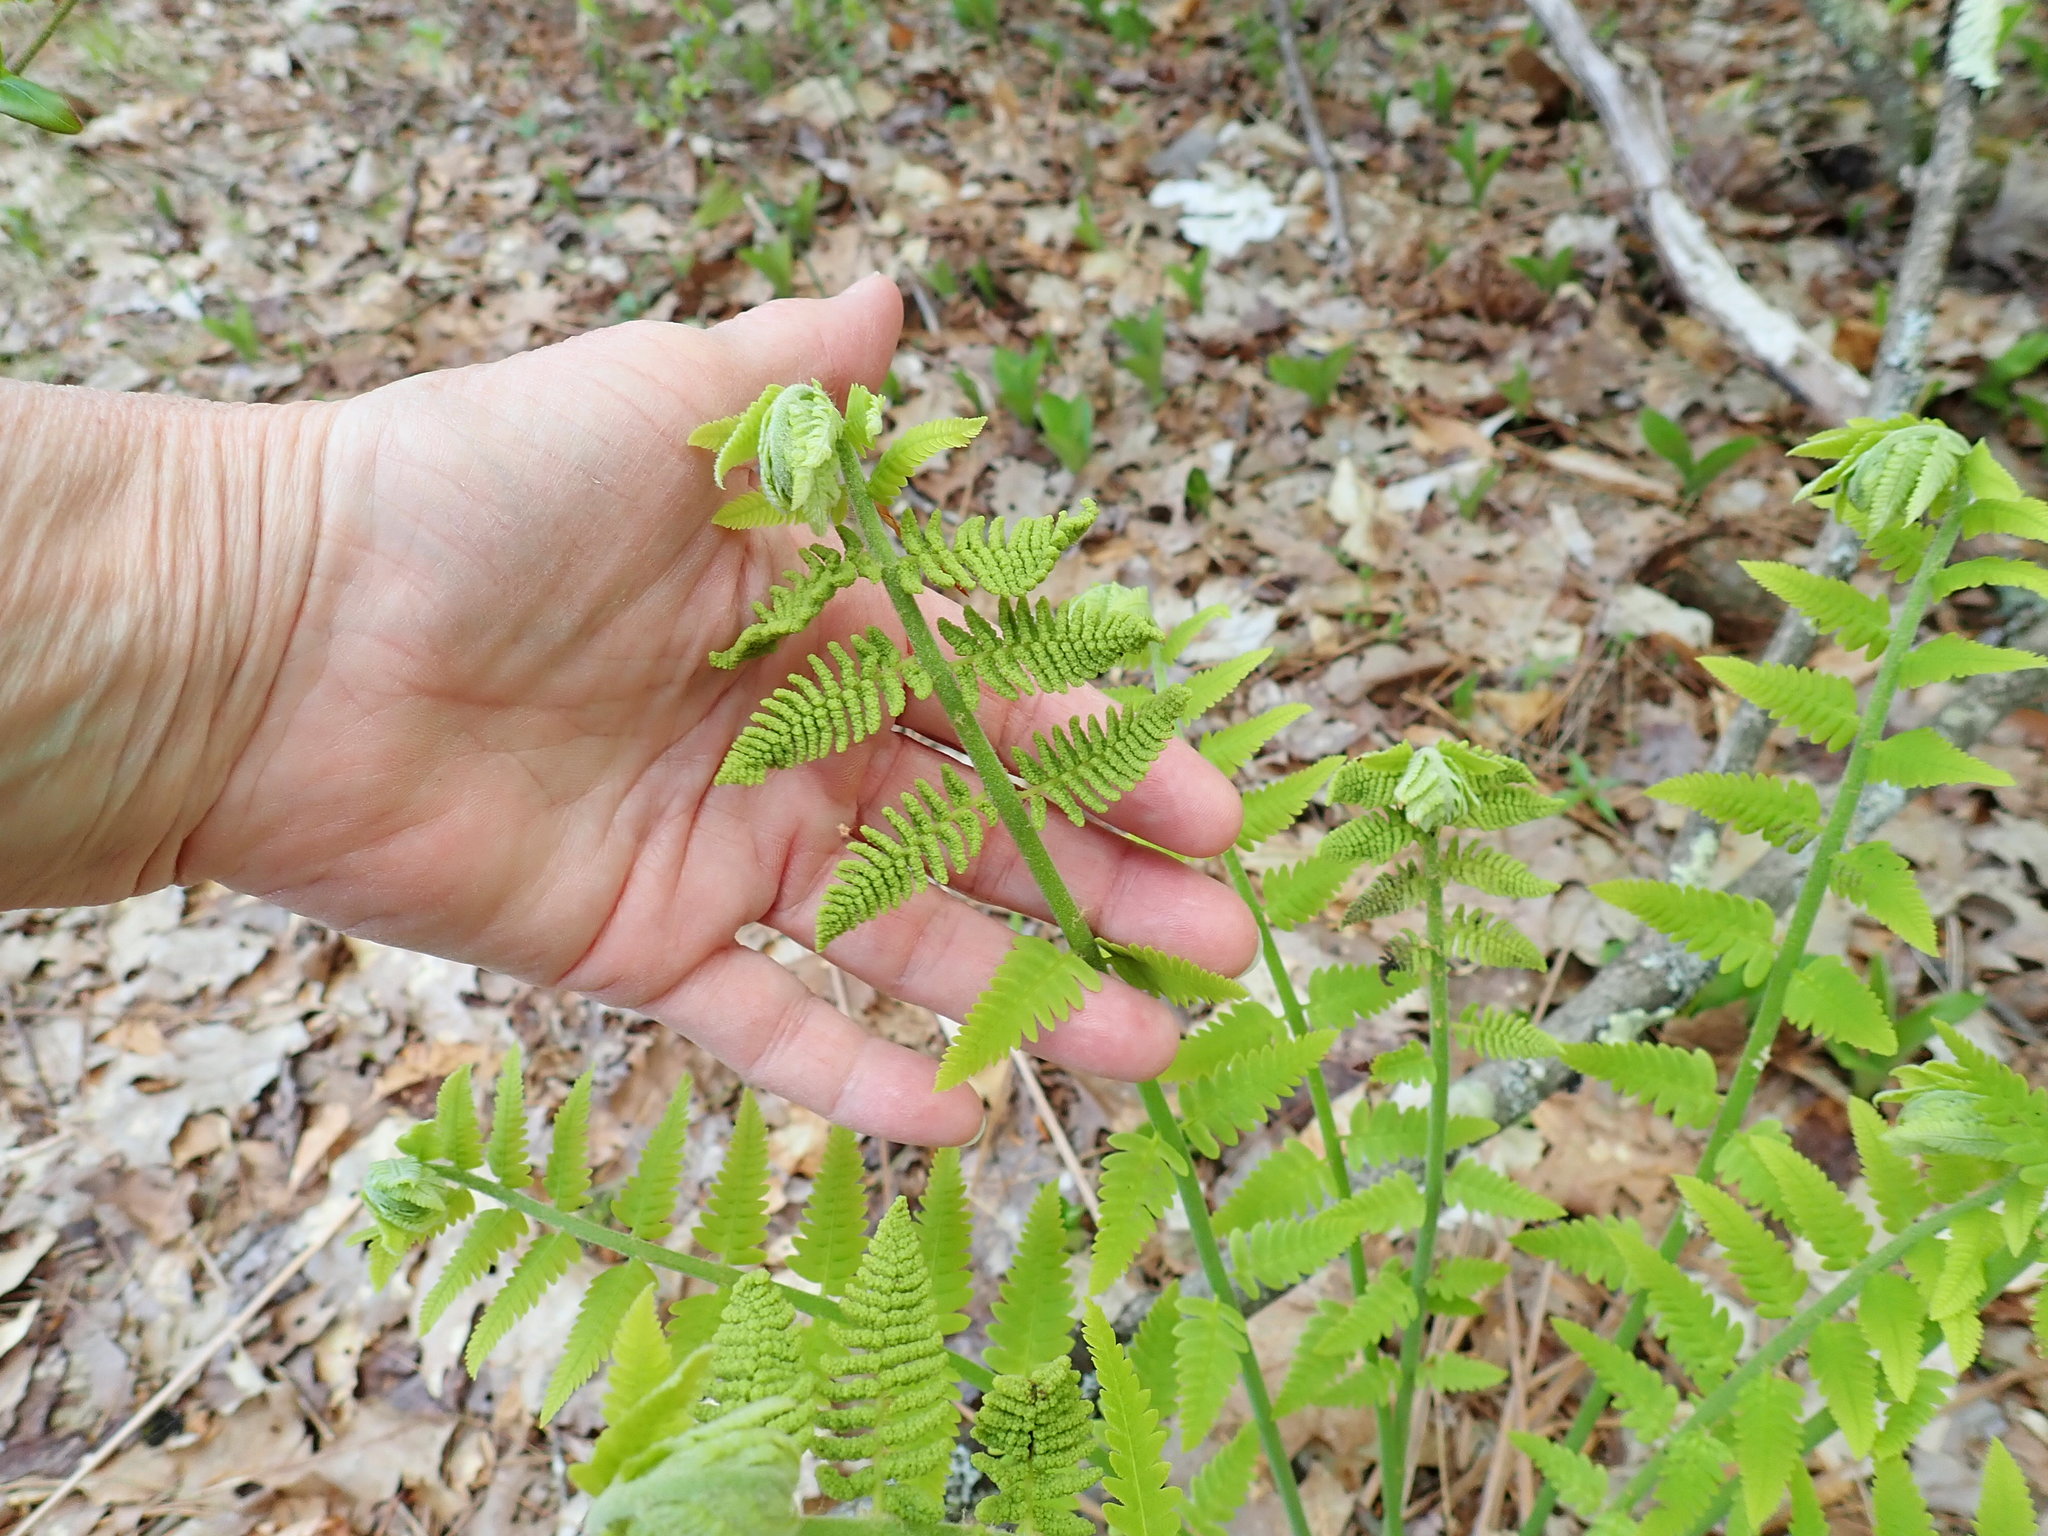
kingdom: Plantae
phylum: Tracheophyta
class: Polypodiopsida
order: Osmundales
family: Osmundaceae
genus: Claytosmunda
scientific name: Claytosmunda claytoniana
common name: Clayton's fern
